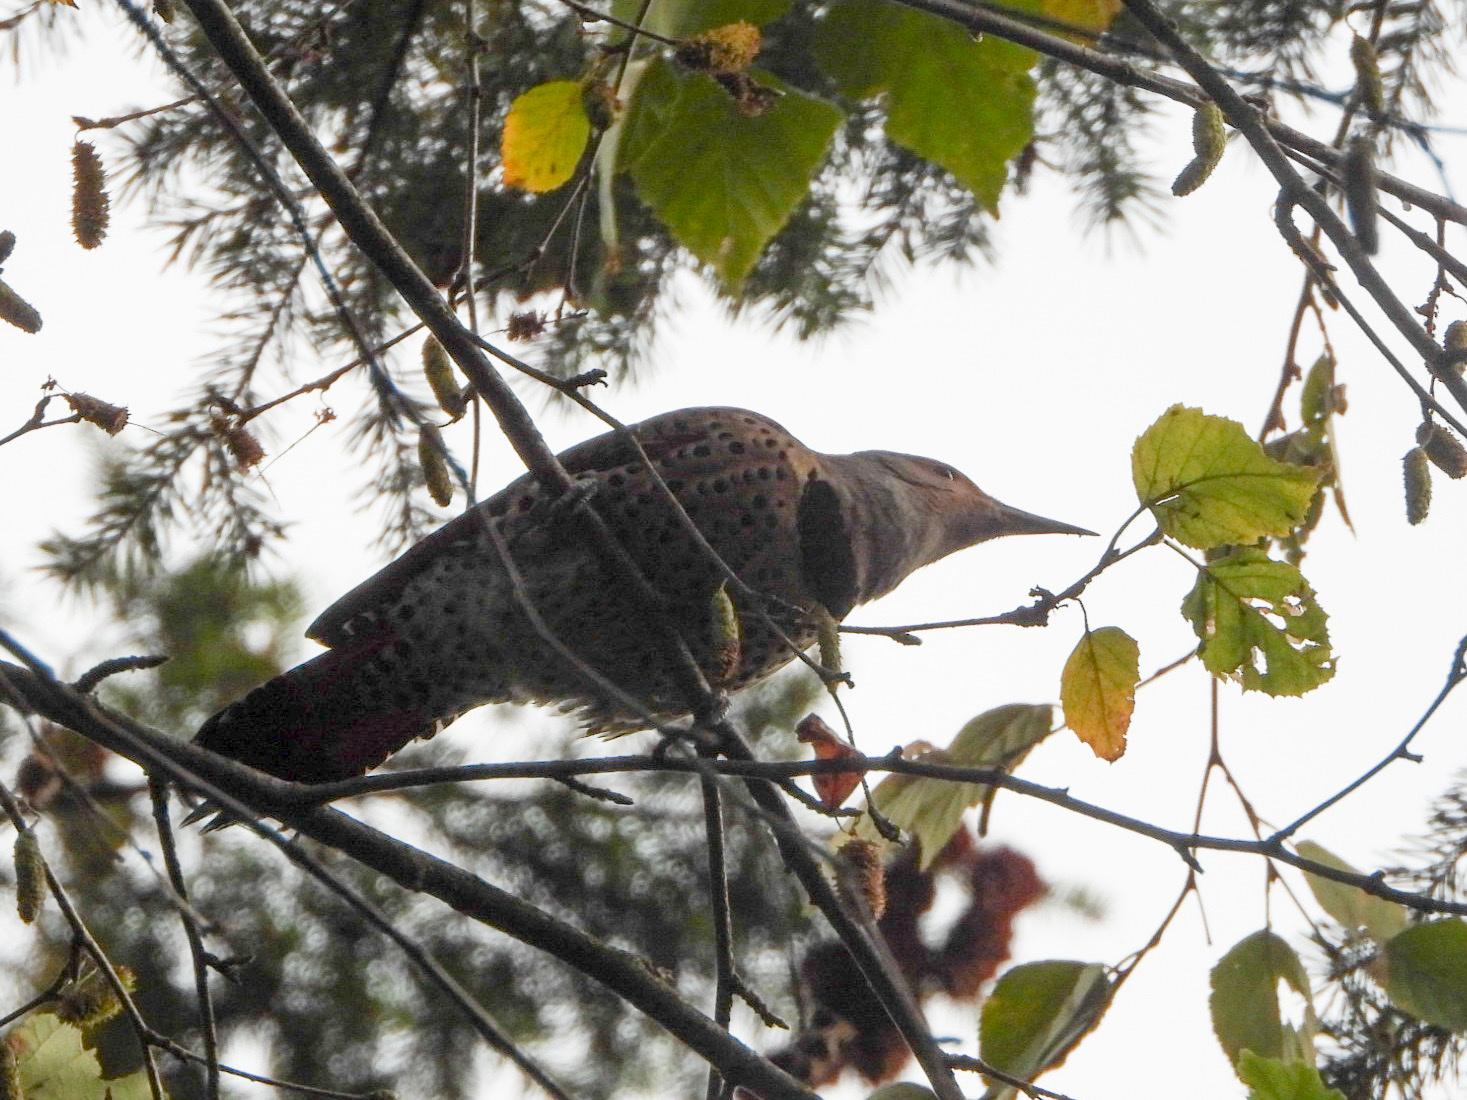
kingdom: Animalia
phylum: Chordata
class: Aves
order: Piciformes
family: Picidae
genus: Colaptes
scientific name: Colaptes auratus
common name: Northern flicker
